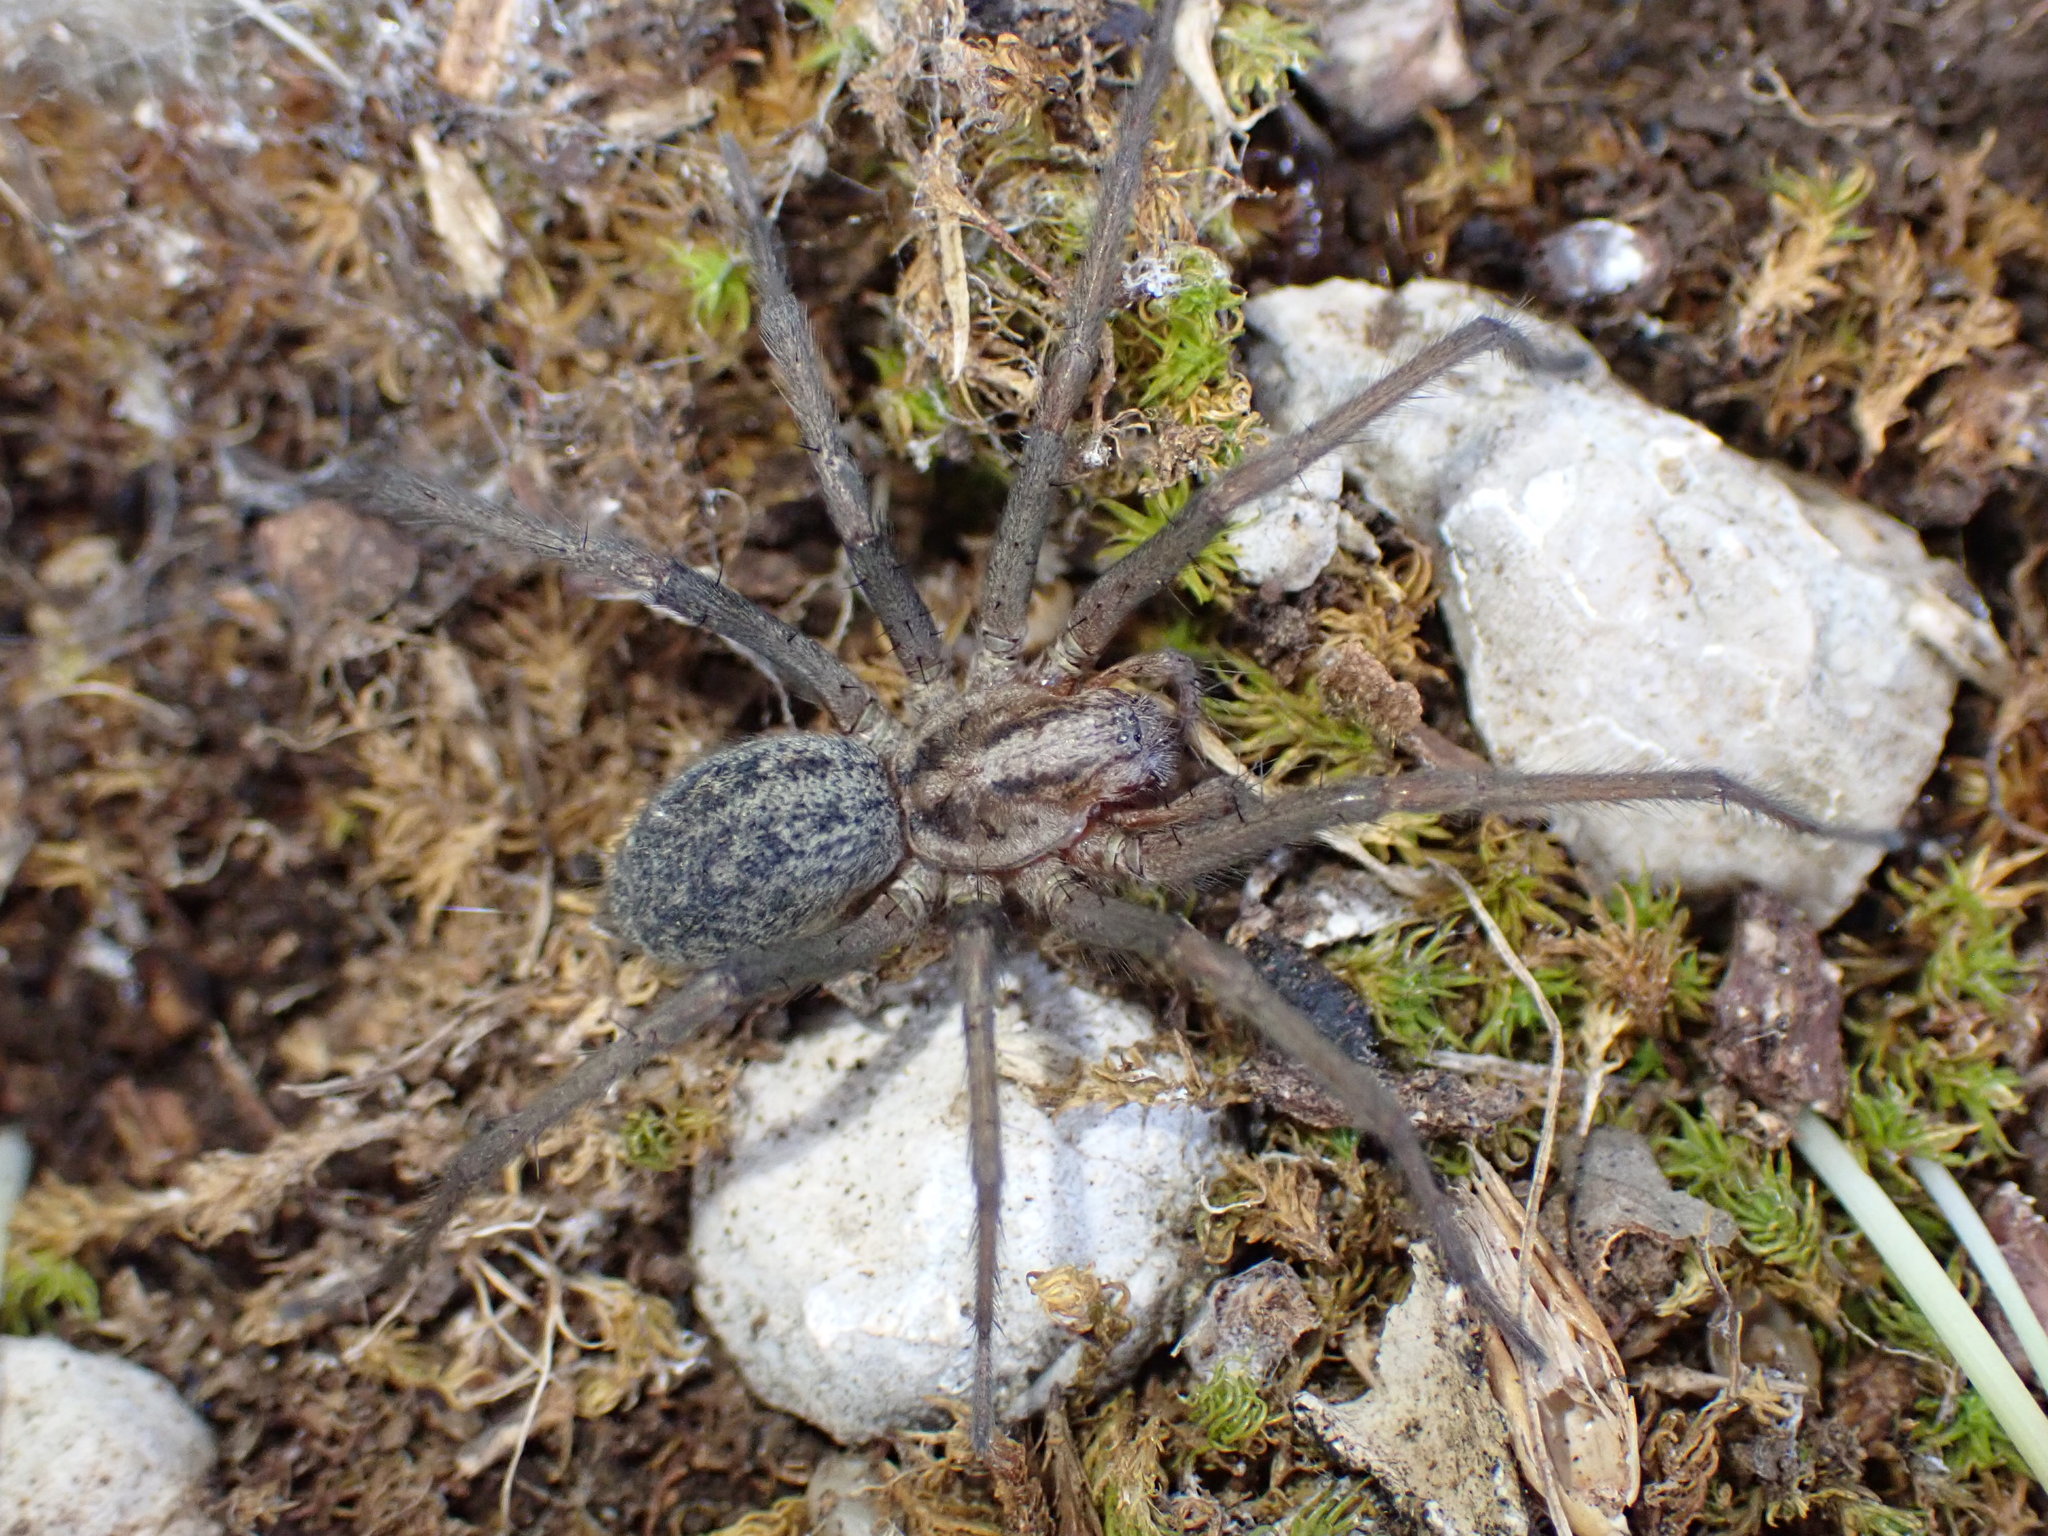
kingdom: Animalia
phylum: Arthropoda
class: Arachnida
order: Araneae
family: Agelenidae
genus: Eratigena
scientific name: Eratigena agrestis
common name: Hobo spider
